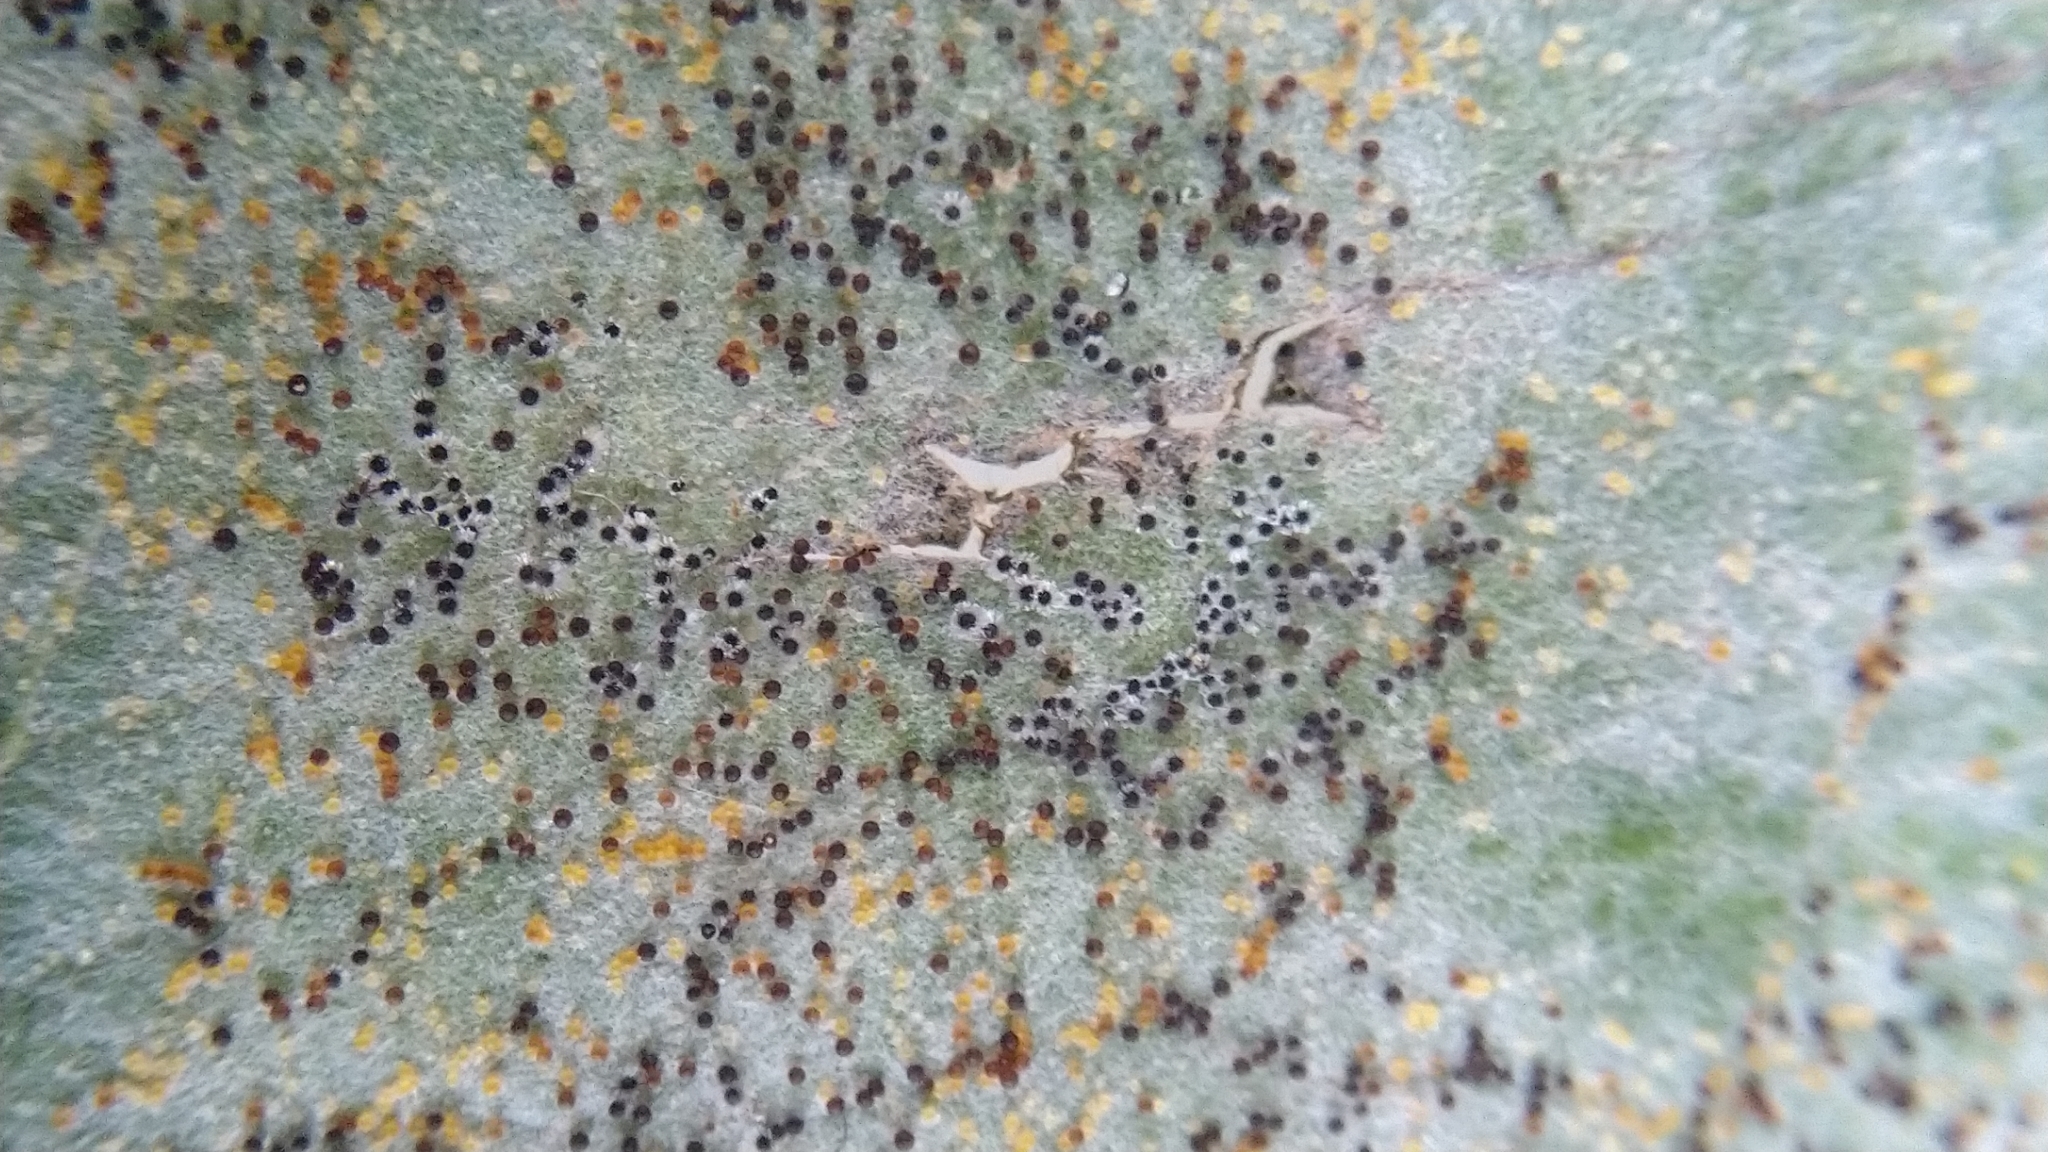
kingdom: Fungi
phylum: Ascomycota
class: Leotiomycetes
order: Helotiales
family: Erysiphaceae
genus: Erysiphe
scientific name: Erysiphe capreae
